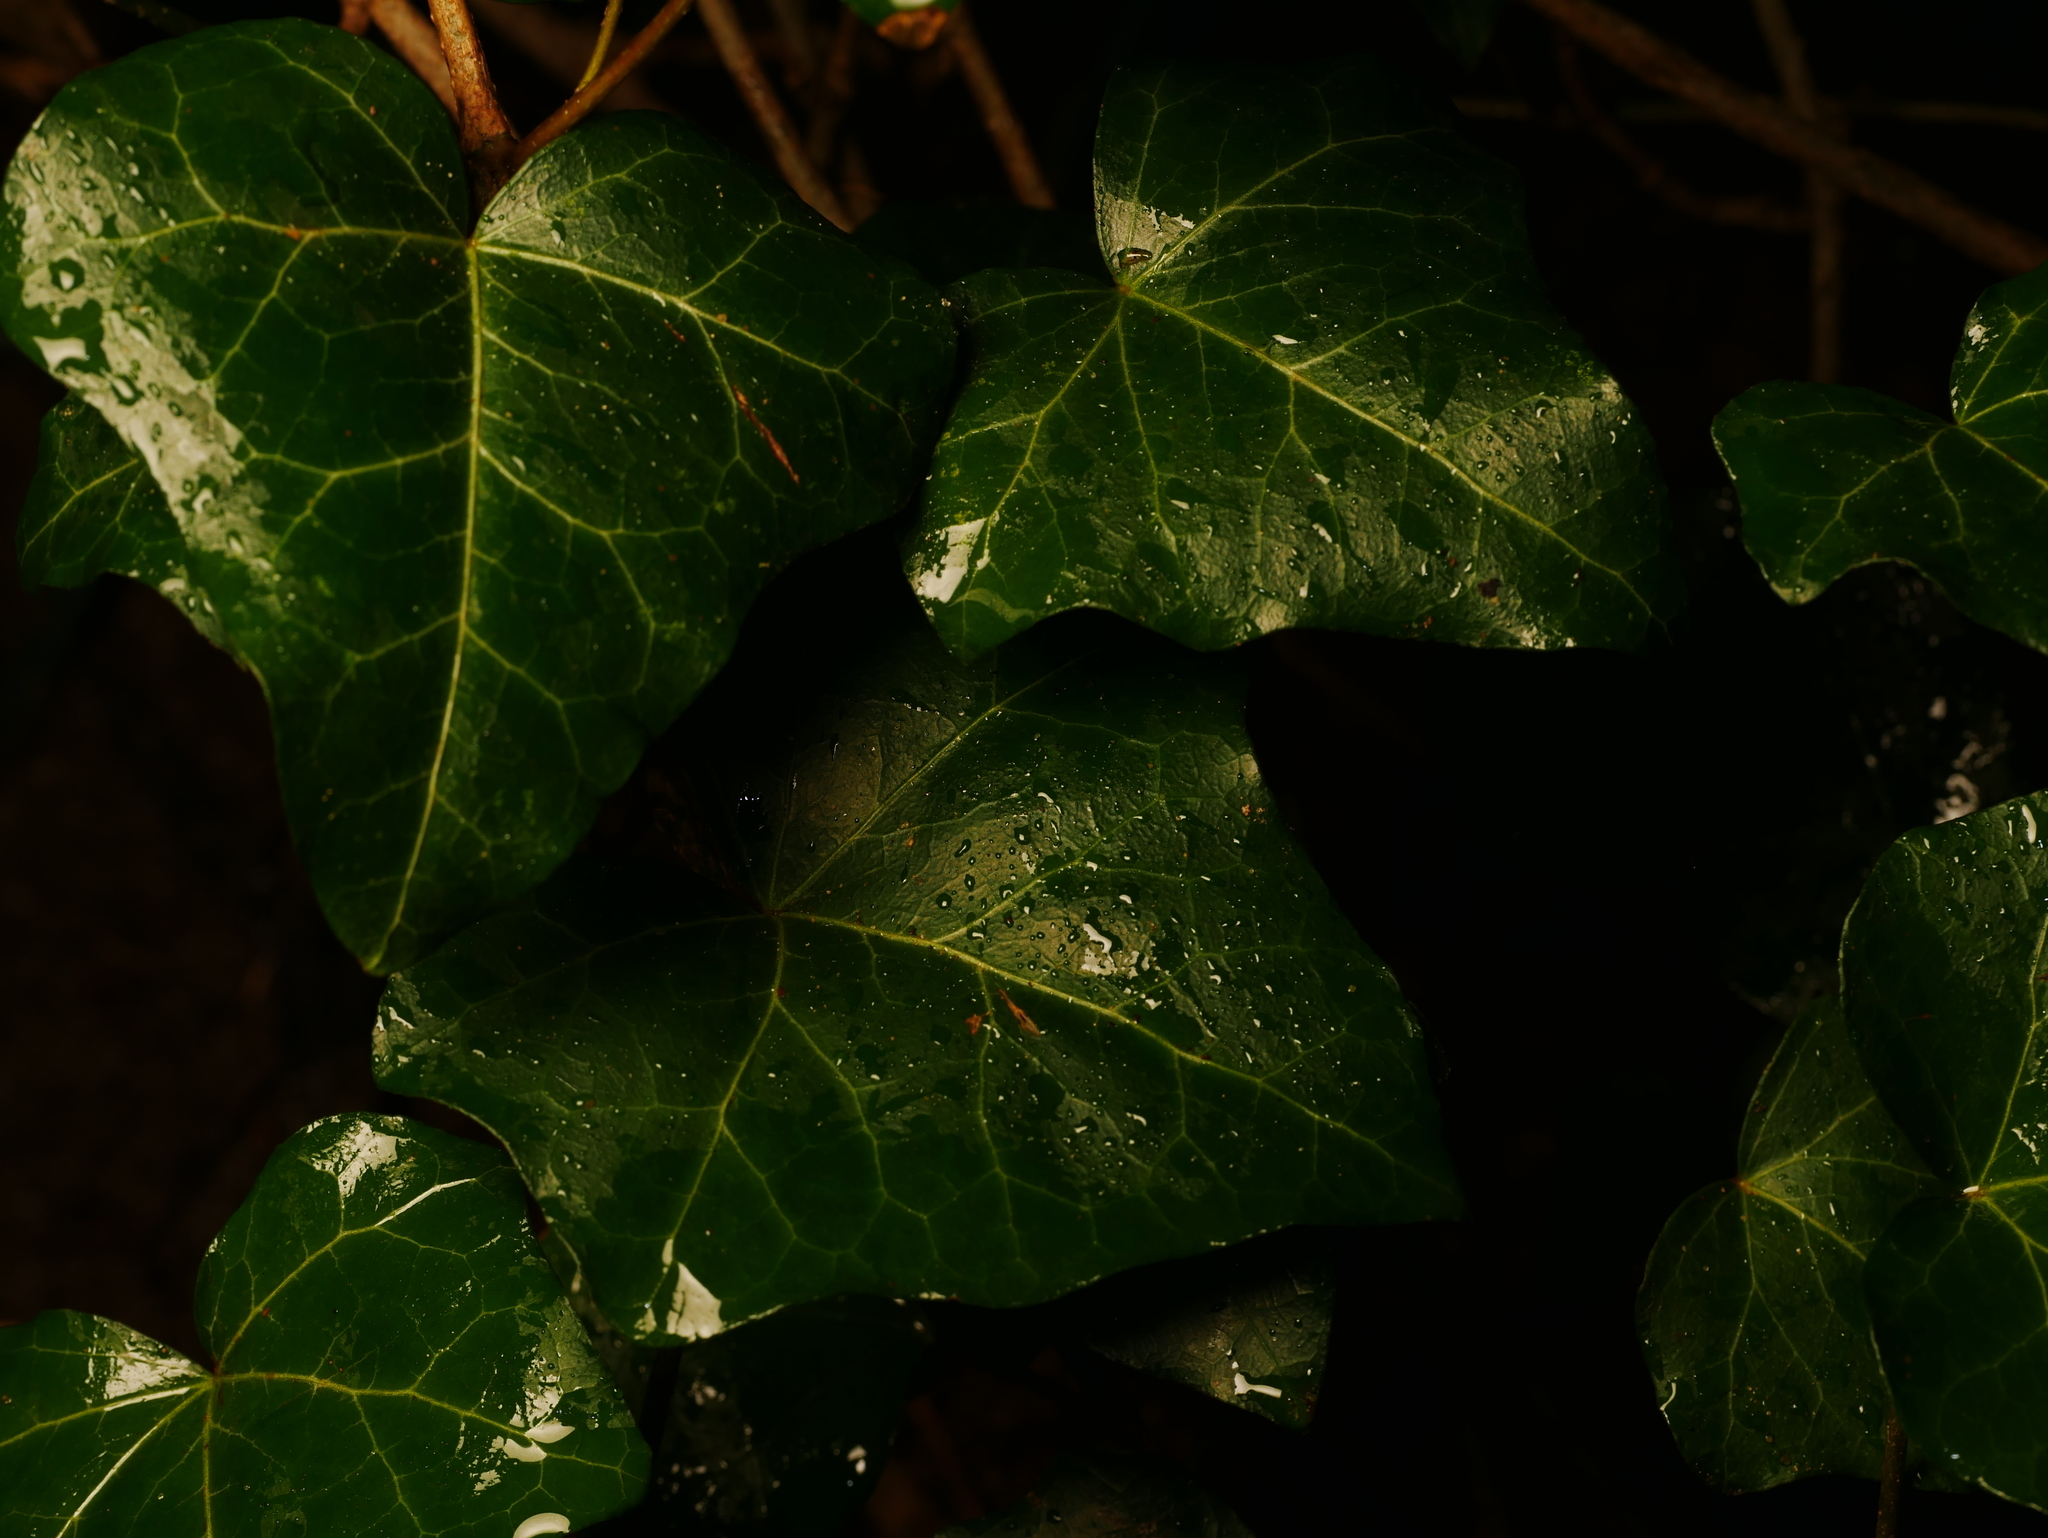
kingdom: Plantae
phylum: Tracheophyta
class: Magnoliopsida
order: Apiales
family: Araliaceae
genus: Hedera
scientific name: Hedera helix
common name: Ivy
